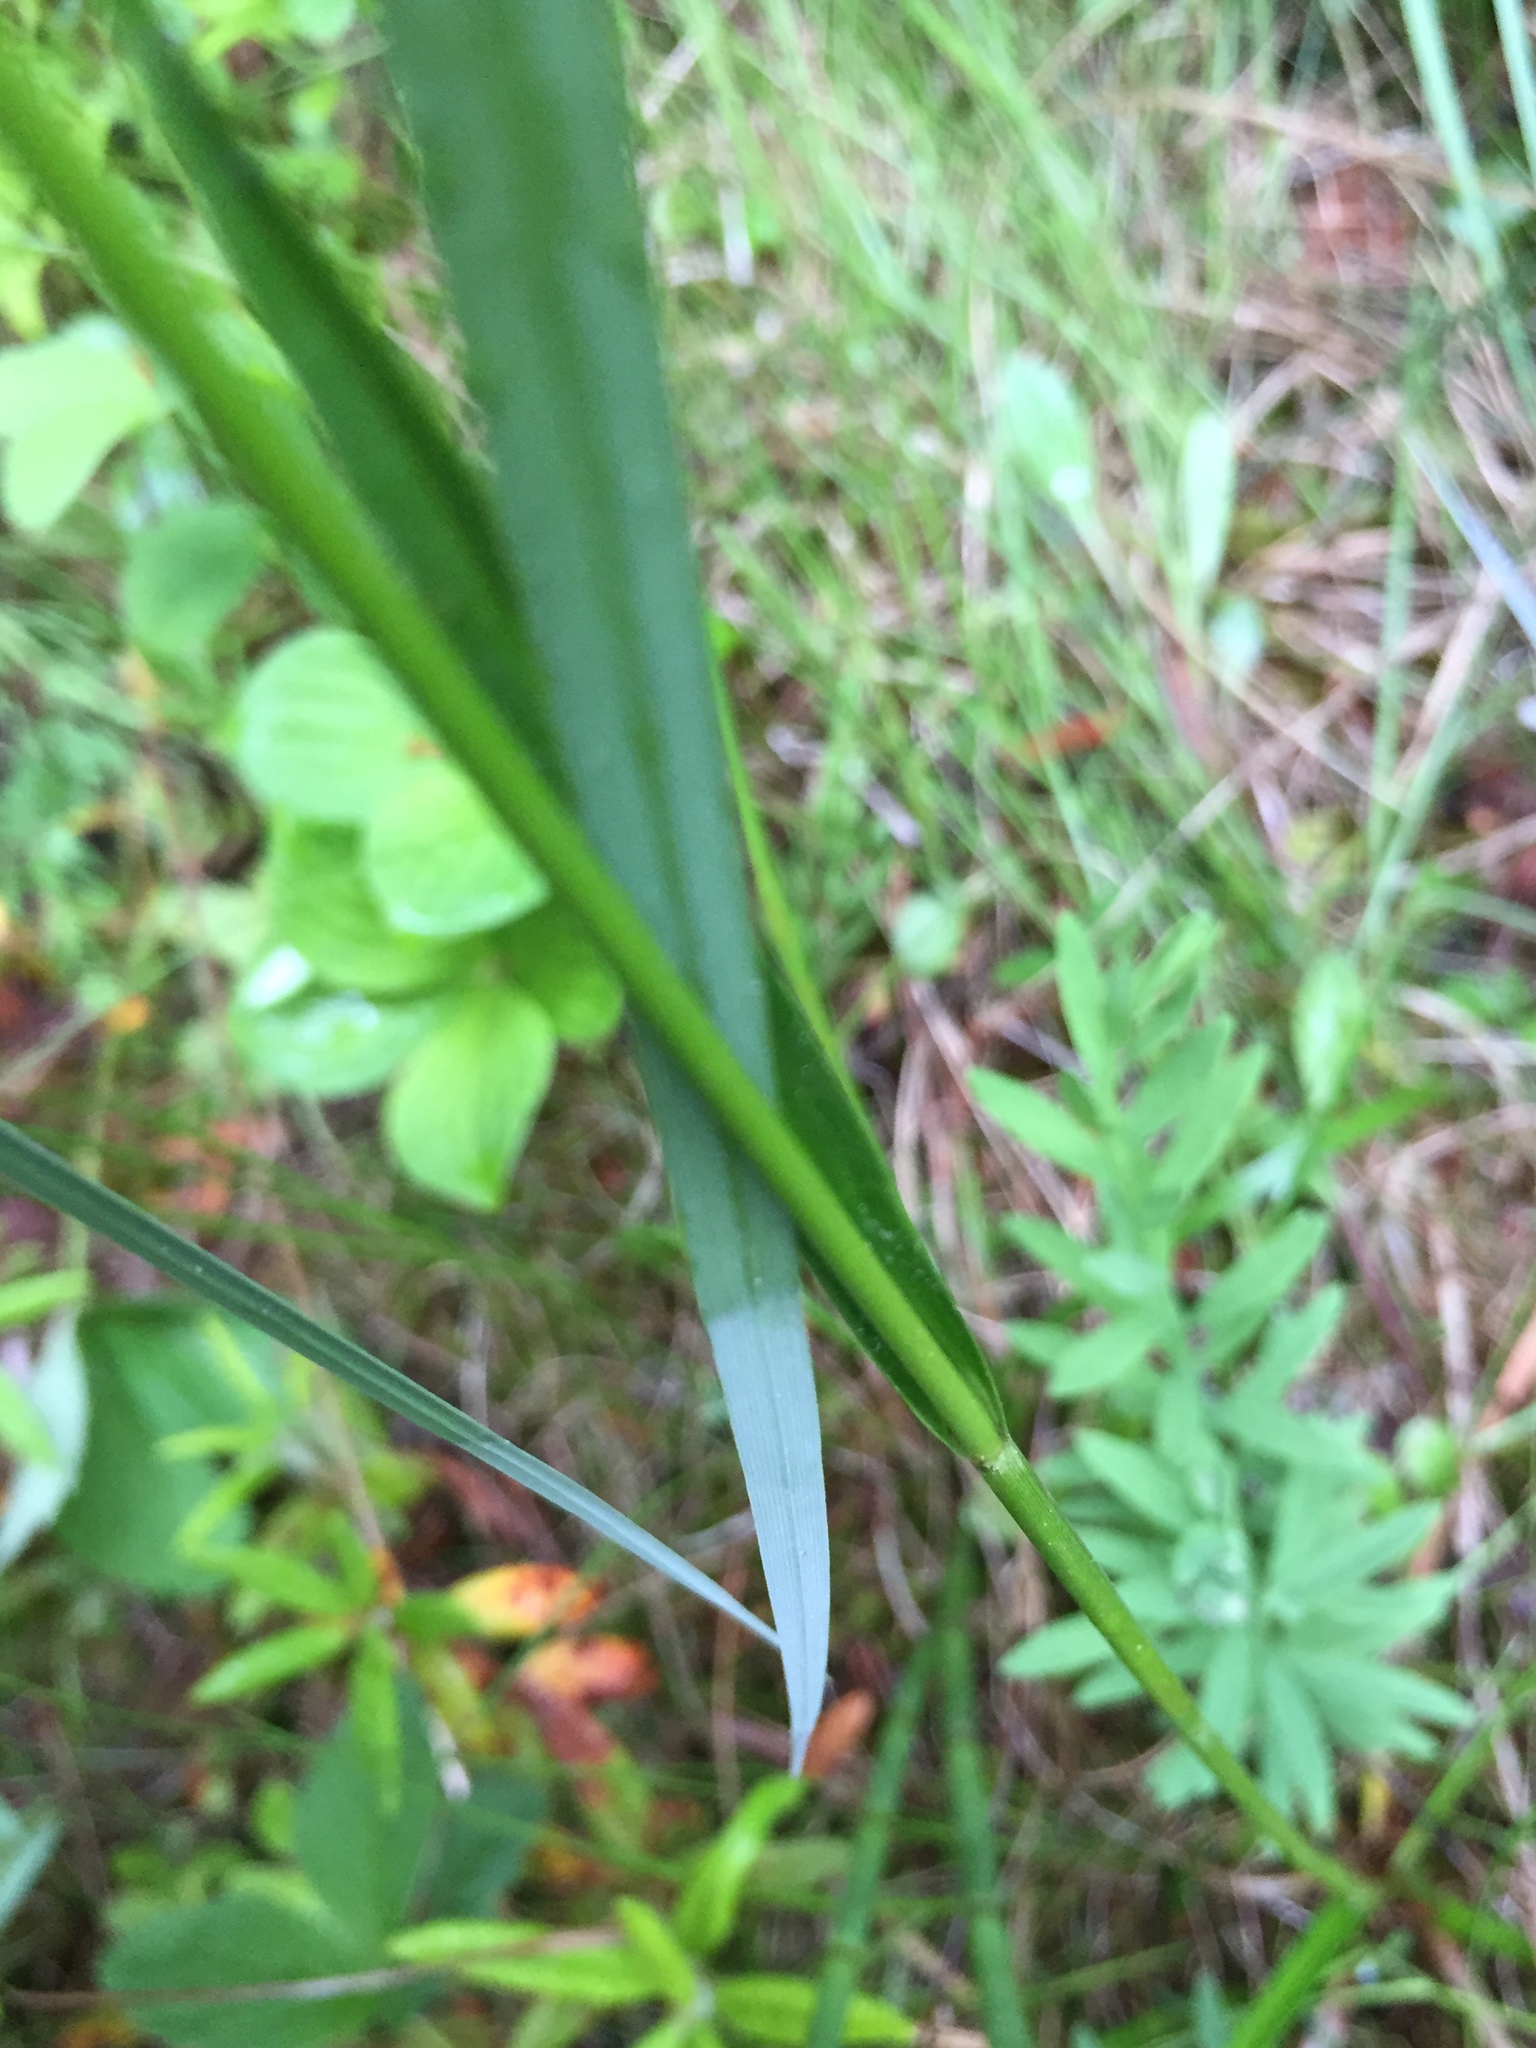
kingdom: Plantae
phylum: Tracheophyta
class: Liliopsida
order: Poales
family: Cyperaceae
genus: Eriophorum
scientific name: Eriophorum angustifolium
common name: Common cottongrass
